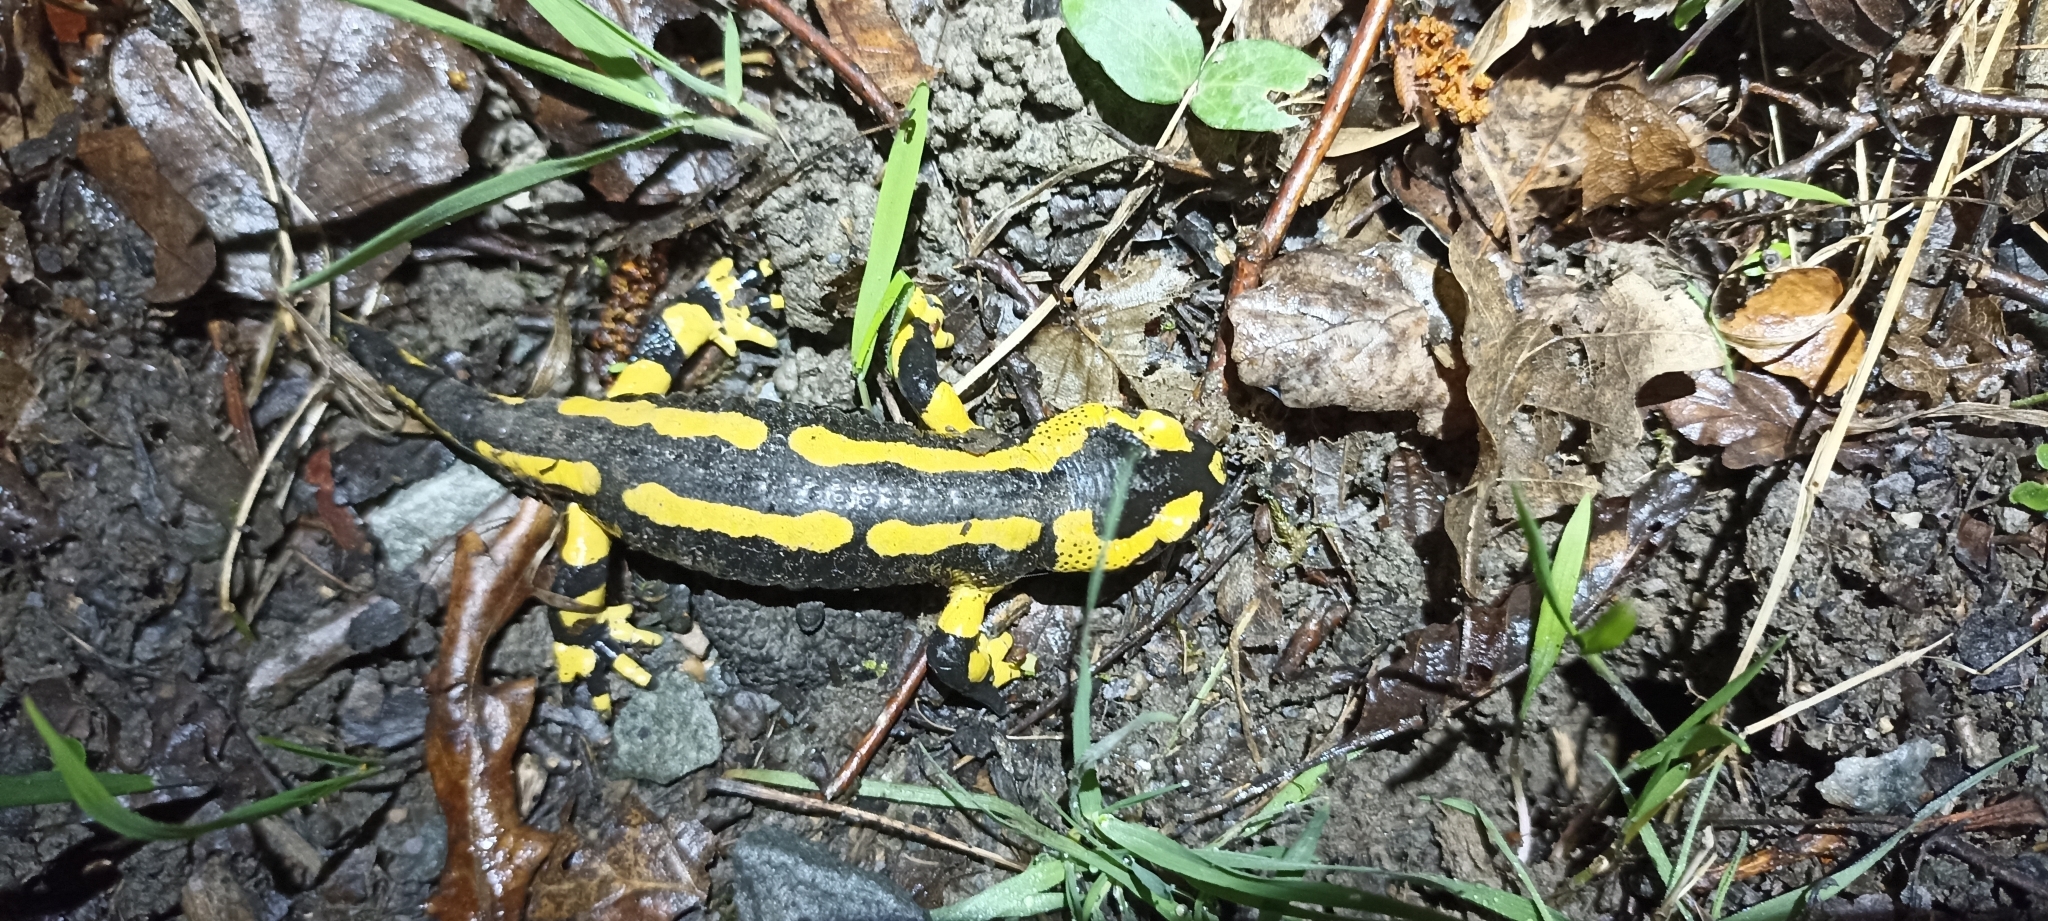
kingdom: Animalia
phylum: Chordata
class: Amphibia
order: Caudata
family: Salamandridae
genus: Salamandra
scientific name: Salamandra salamandra
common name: Fire salamander
